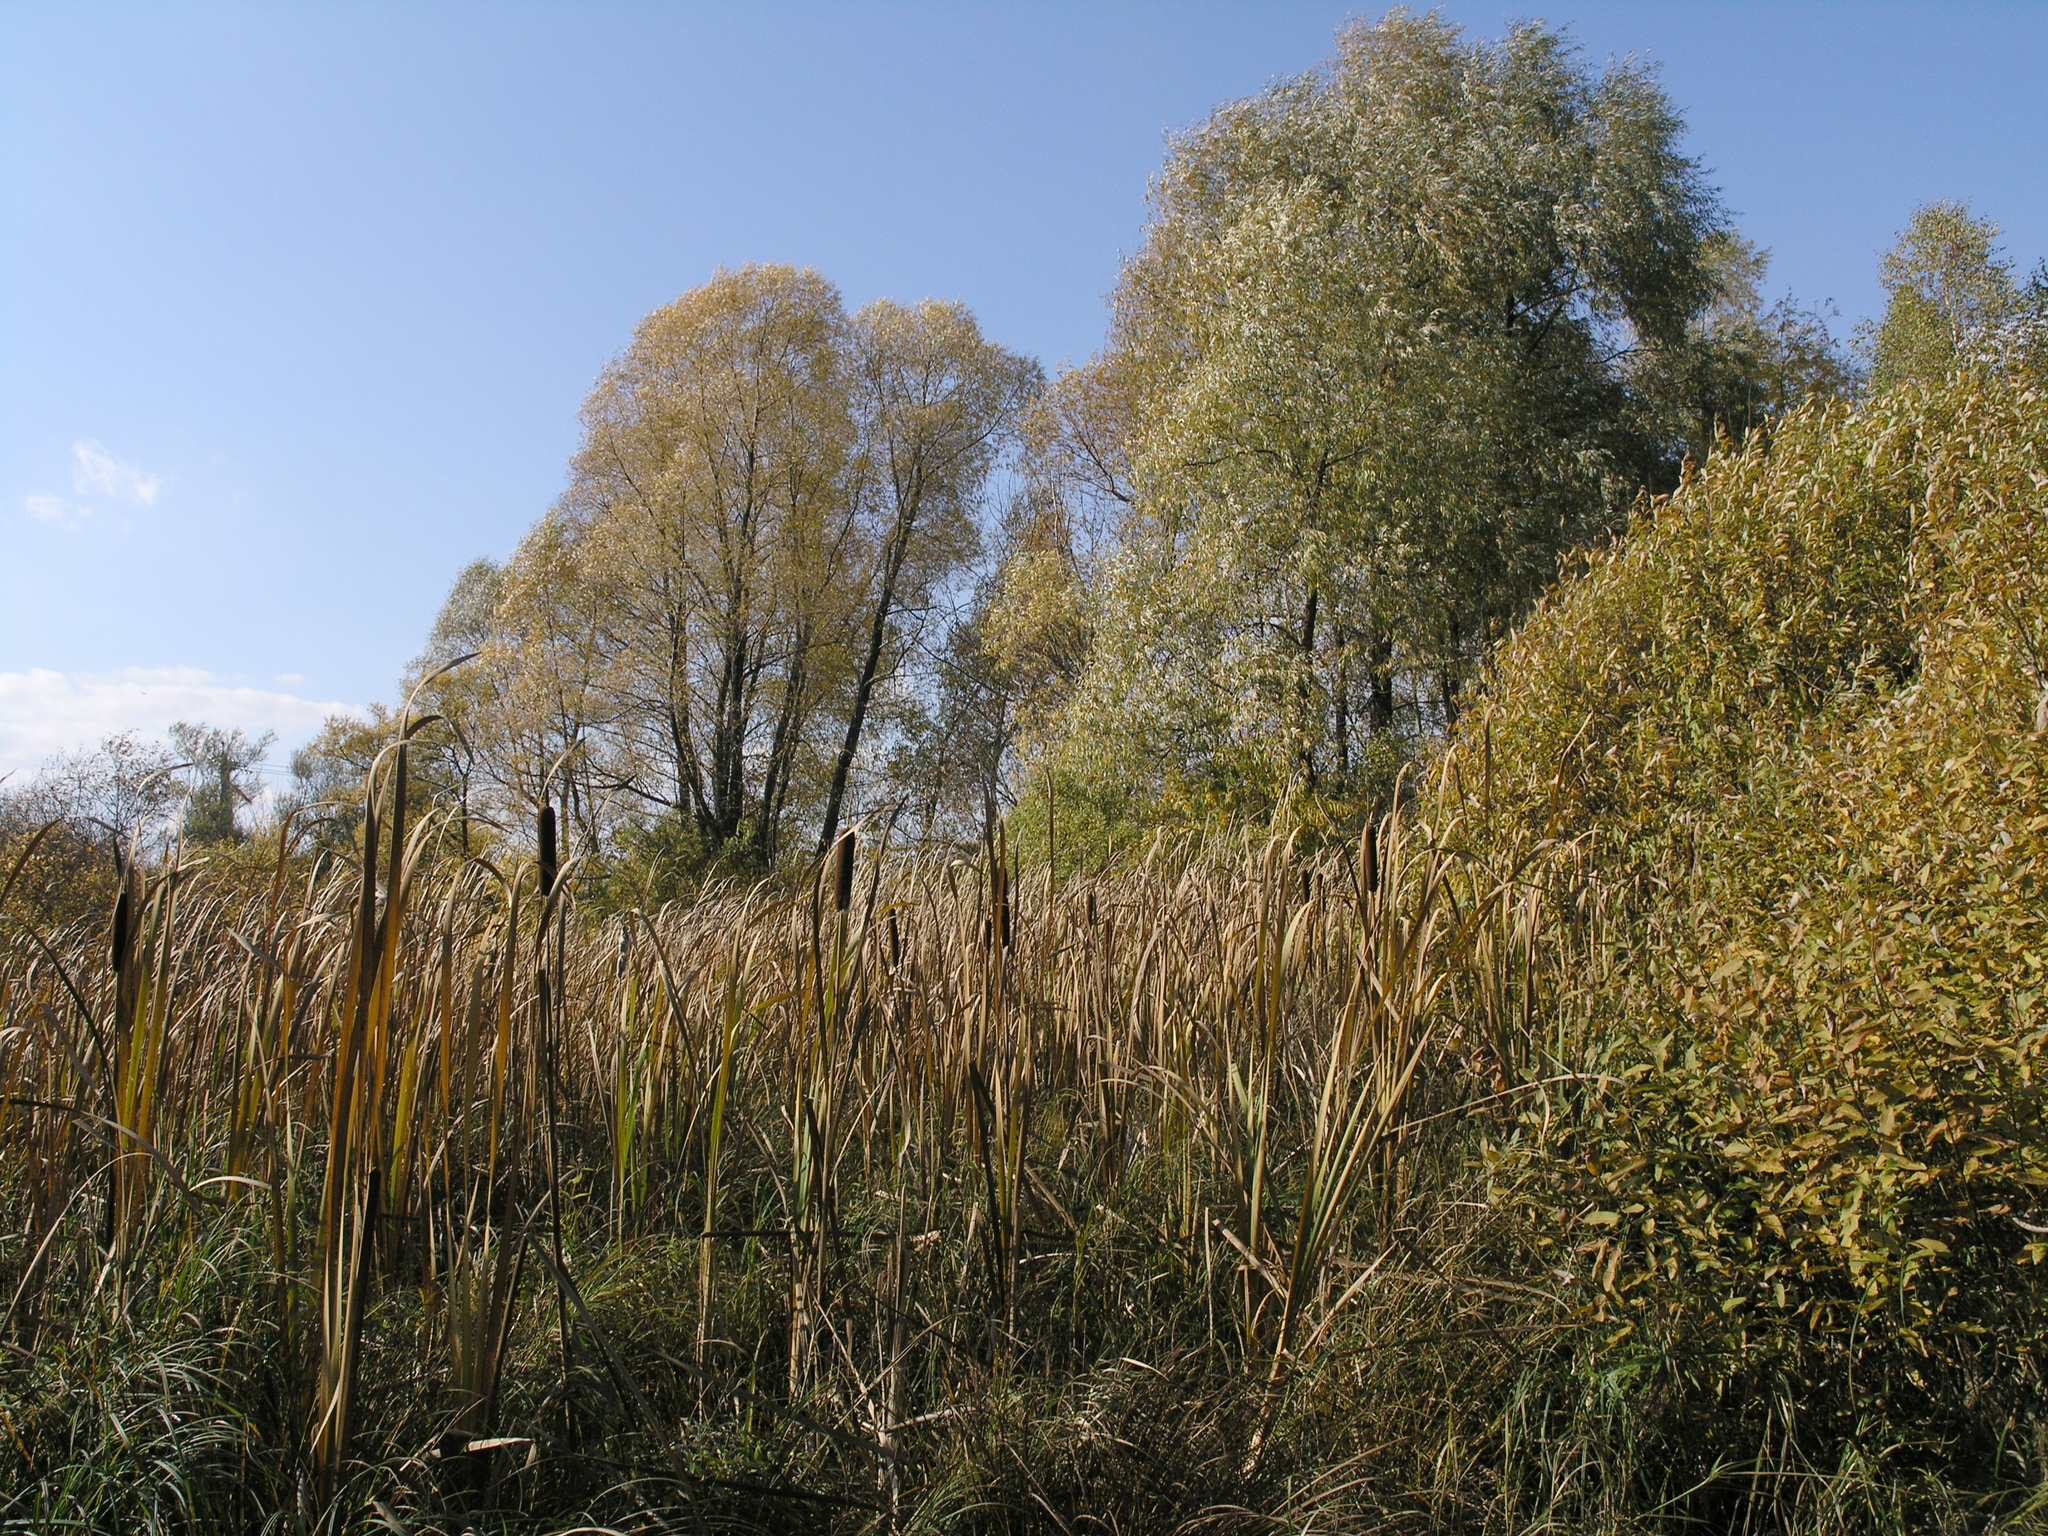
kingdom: Plantae
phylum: Tracheophyta
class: Magnoliopsida
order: Malpighiales
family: Salicaceae
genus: Salix
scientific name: Salix alba
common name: White willow
